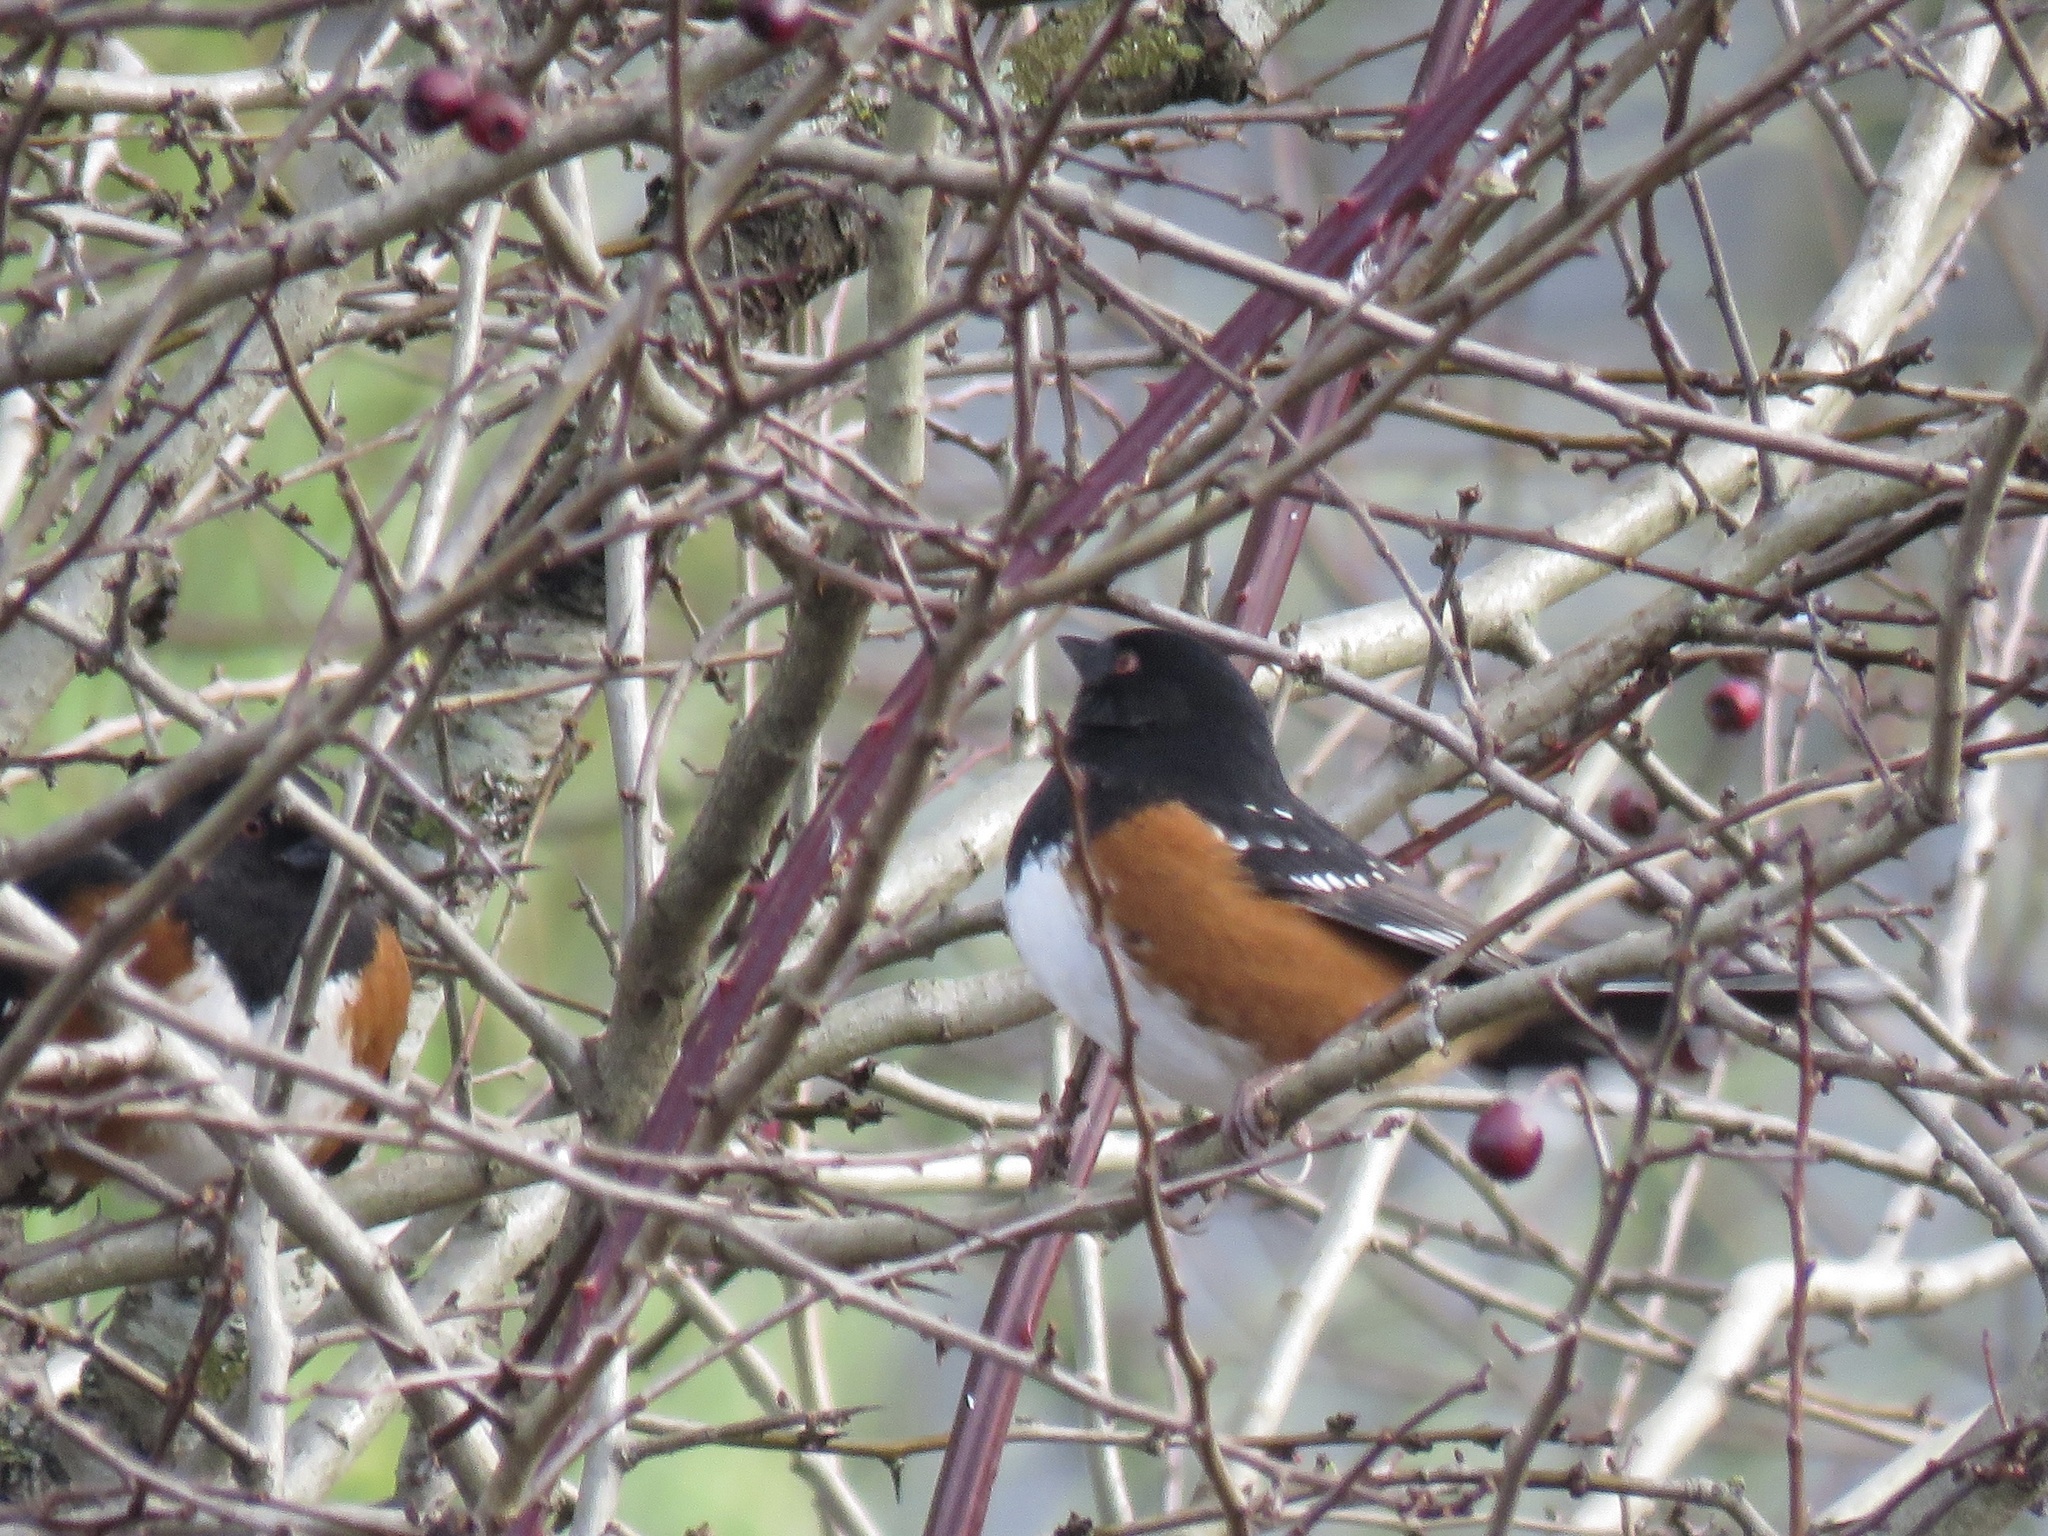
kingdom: Animalia
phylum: Chordata
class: Aves
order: Passeriformes
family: Passerellidae
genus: Pipilo
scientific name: Pipilo maculatus
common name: Spotted towhee
